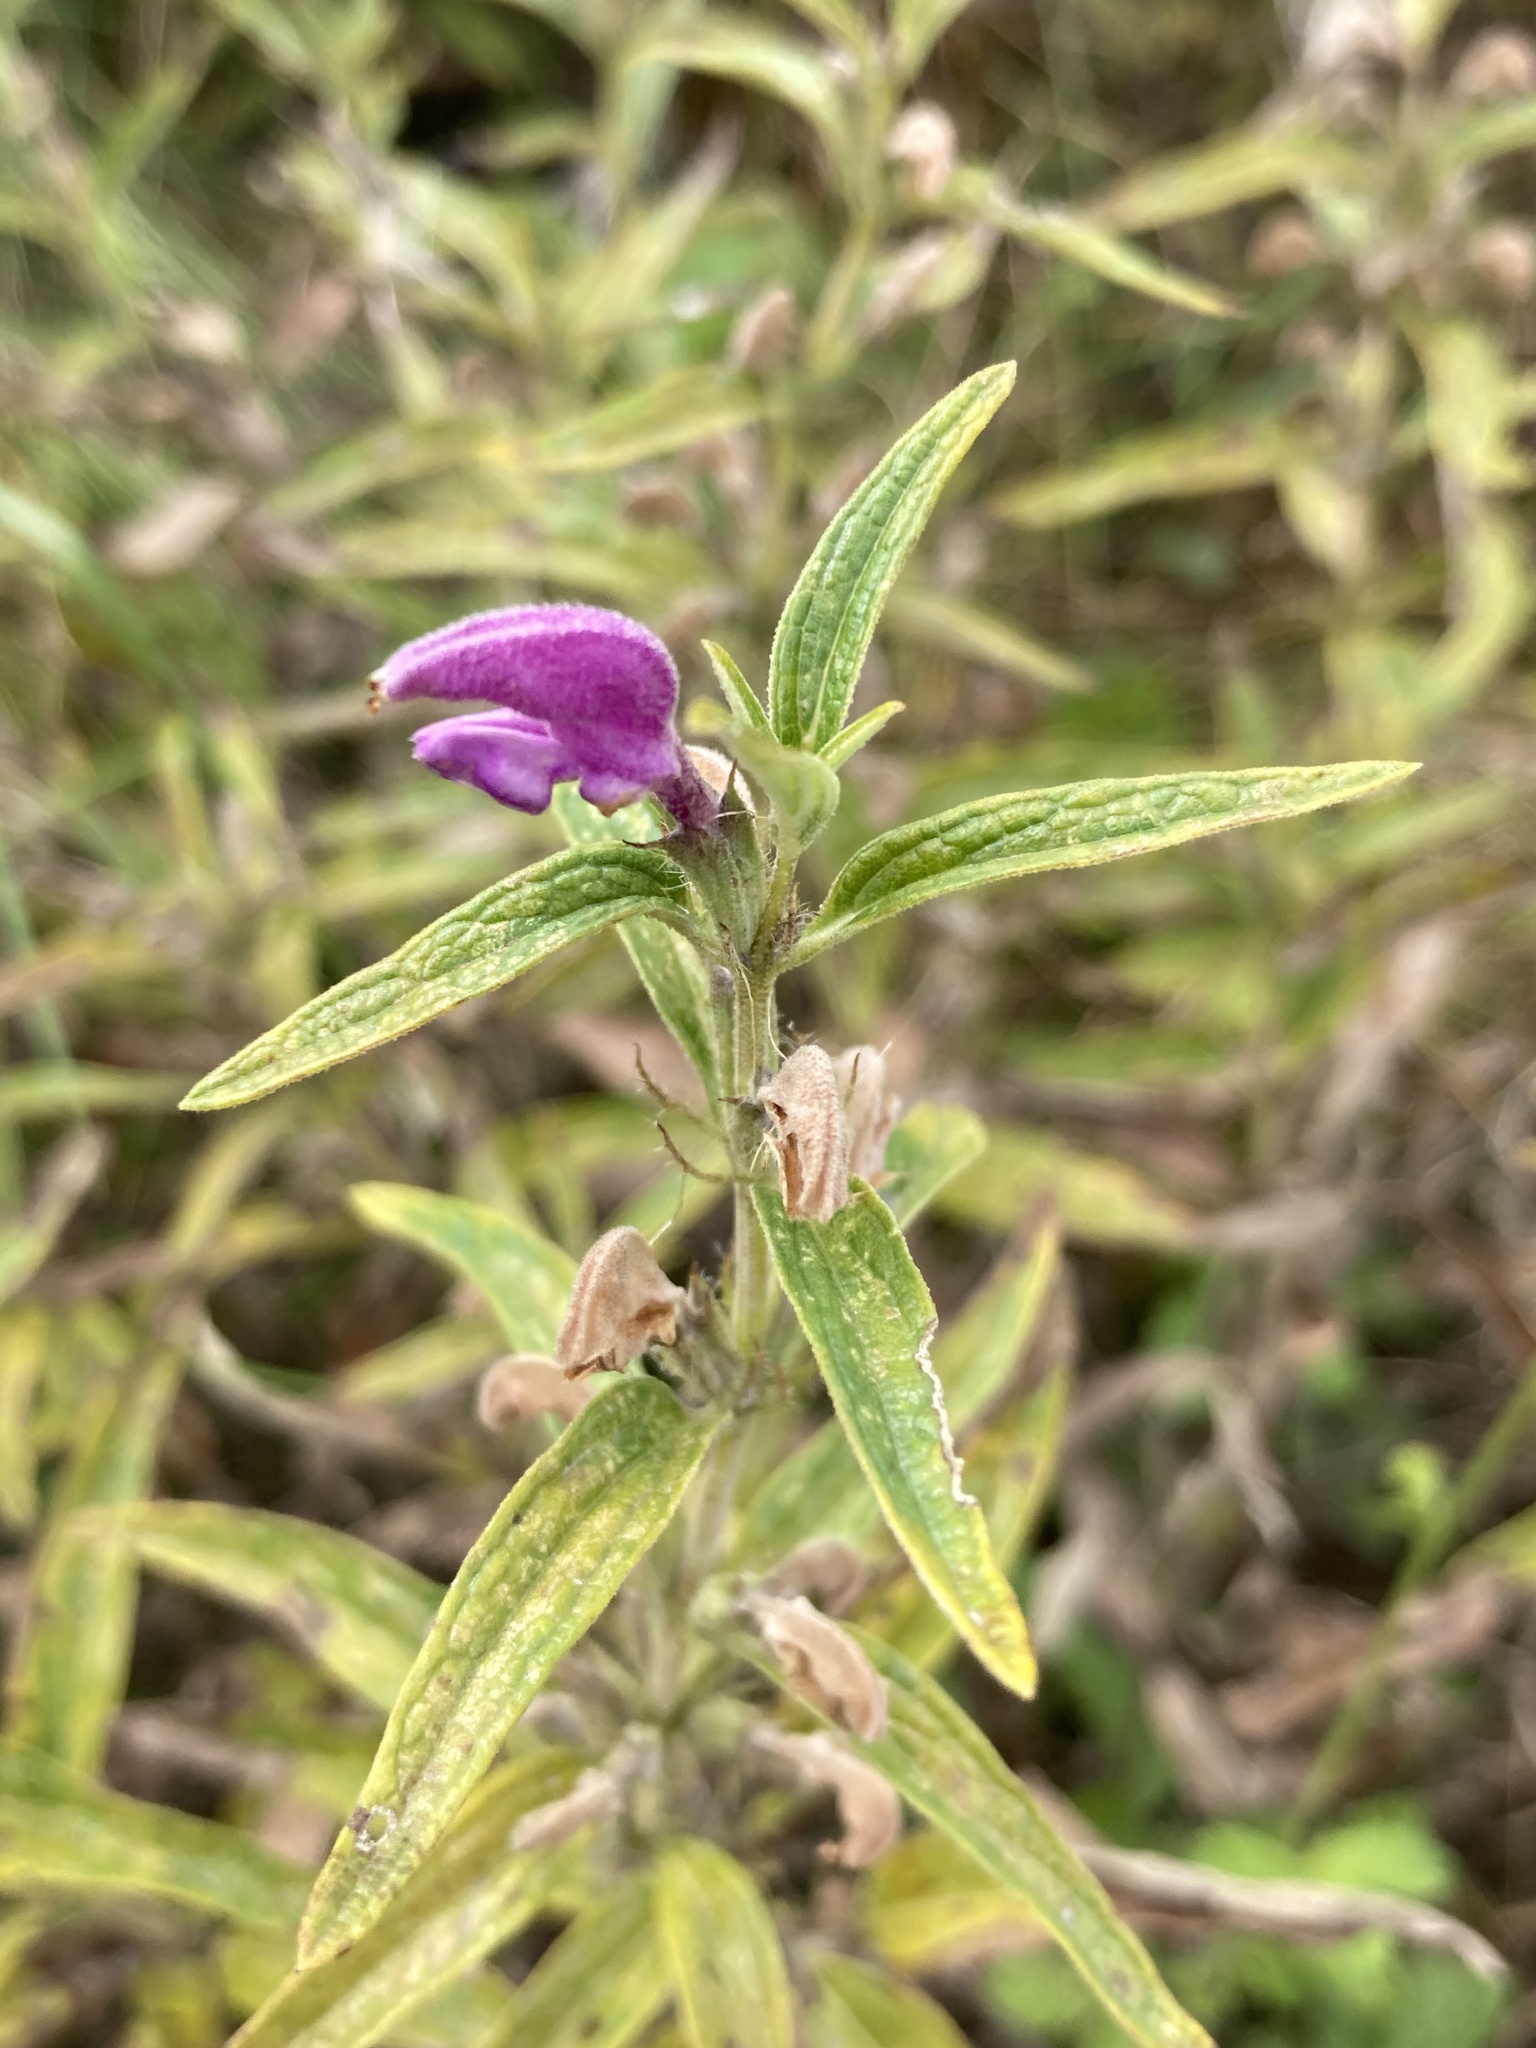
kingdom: Plantae
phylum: Tracheophyta
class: Magnoliopsida
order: Lamiales
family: Lamiaceae
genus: Phlomis
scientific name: Phlomis herba-venti
